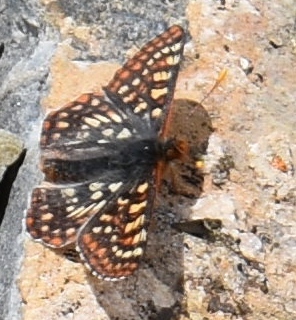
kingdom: Animalia
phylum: Arthropoda
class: Insecta
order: Lepidoptera
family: Nymphalidae
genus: Occidryas
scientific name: Occidryas anicia
